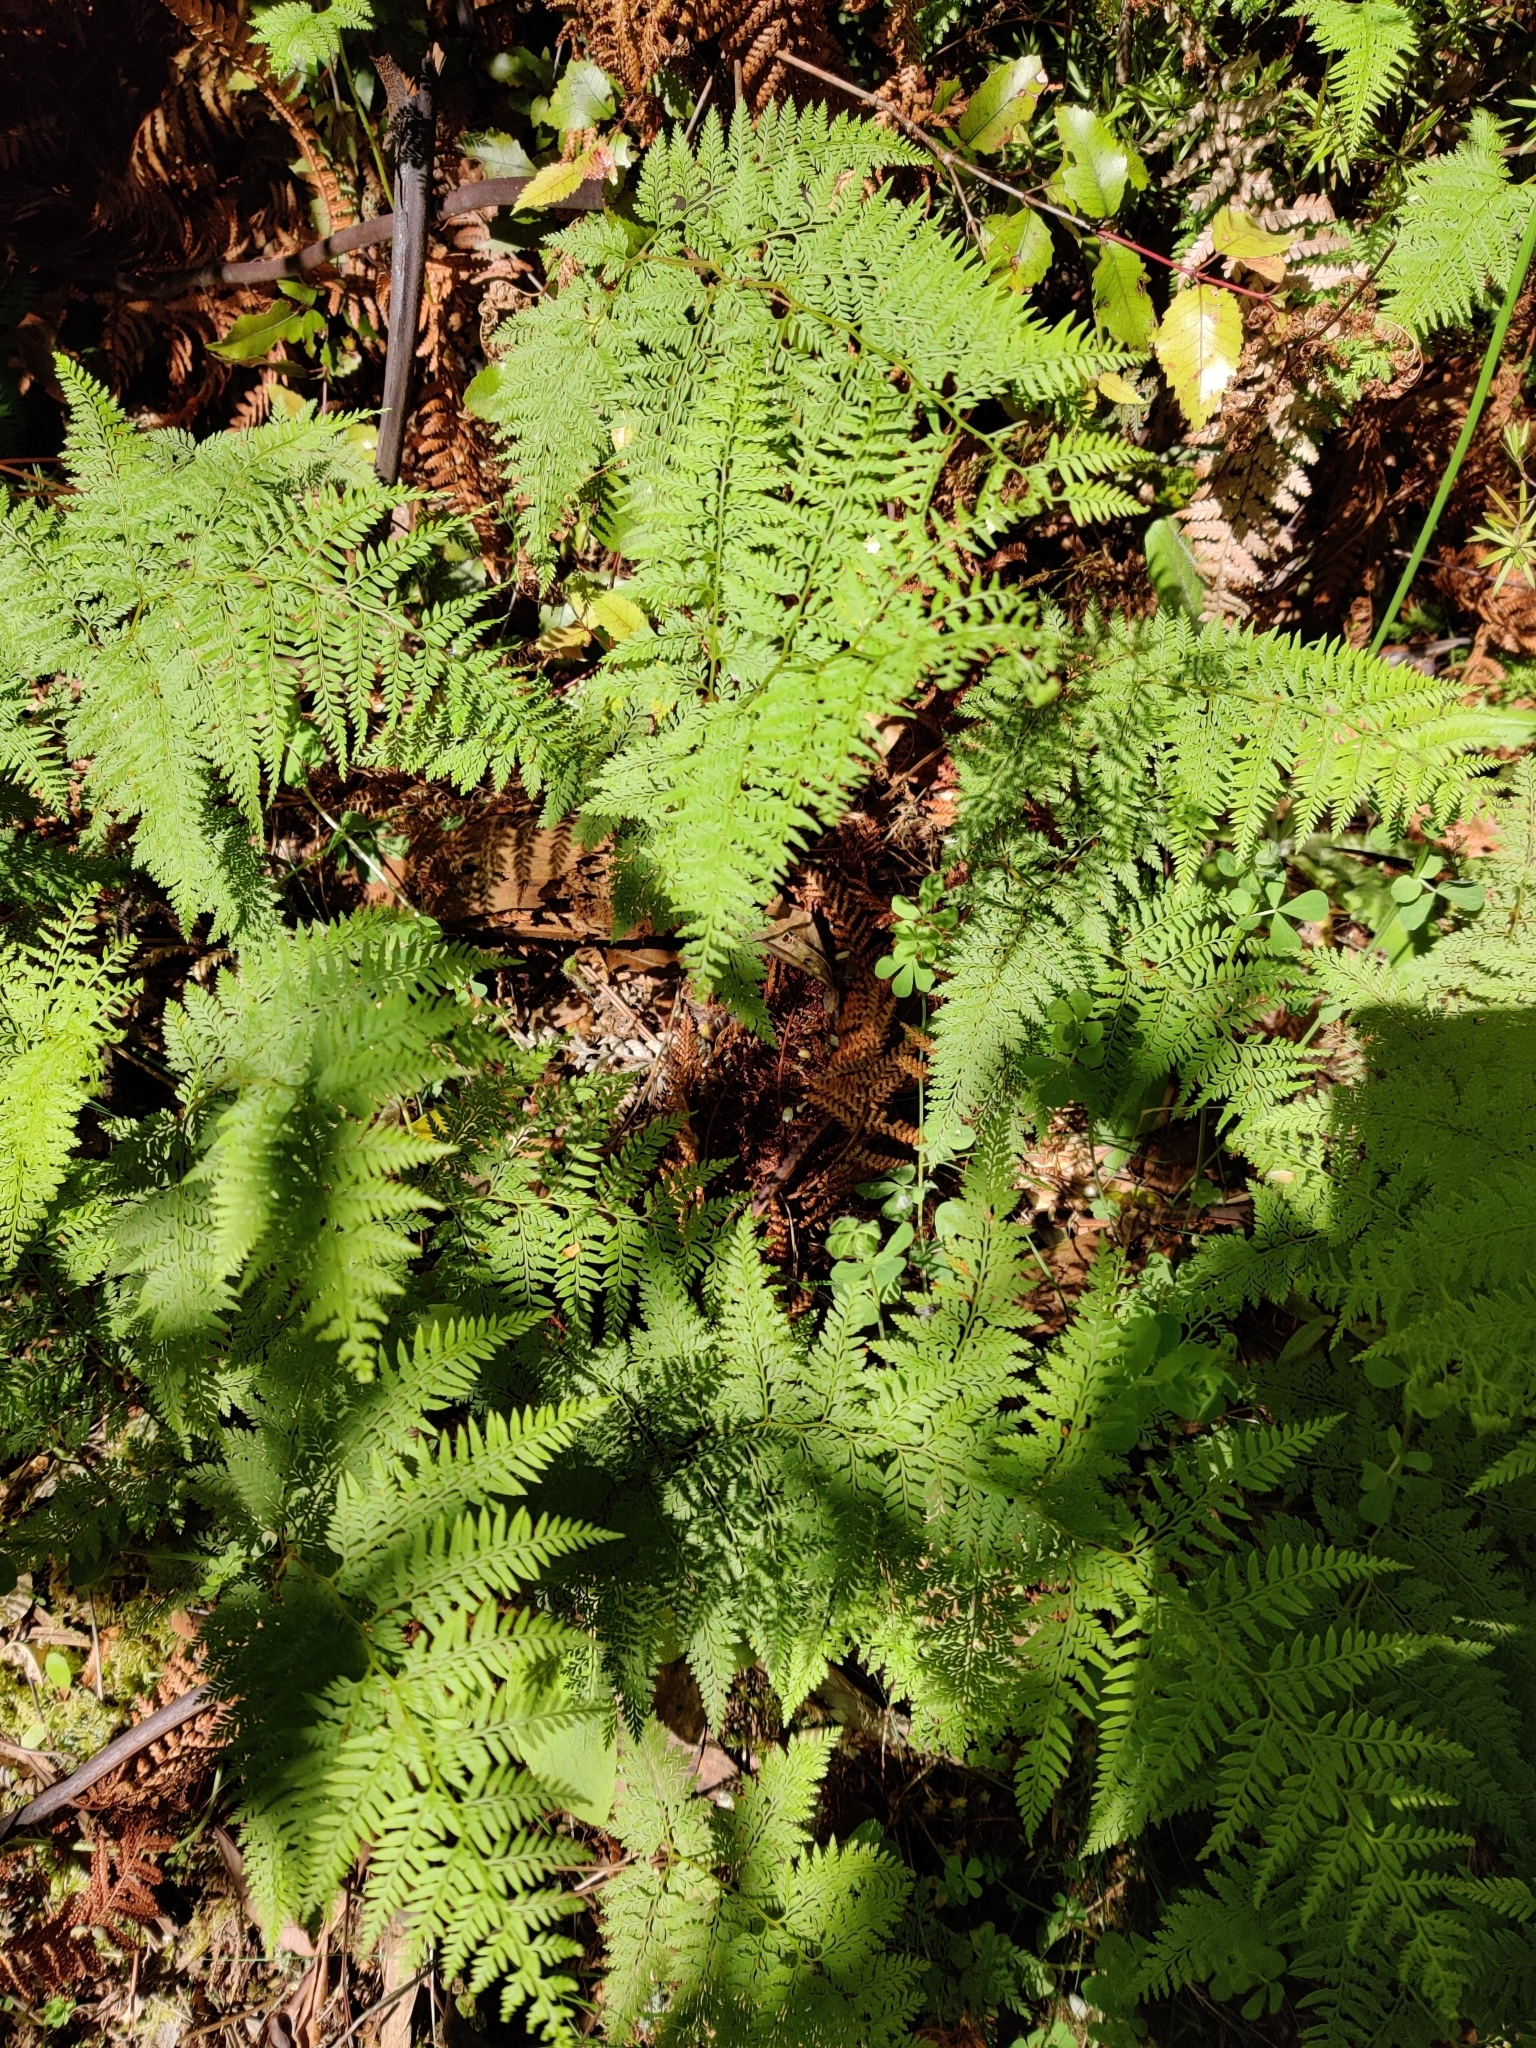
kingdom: Plantae
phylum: Tracheophyta
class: Polypodiopsida
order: Polypodiales
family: Dennstaedtiaceae
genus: Paesia
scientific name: Paesia scaberula
